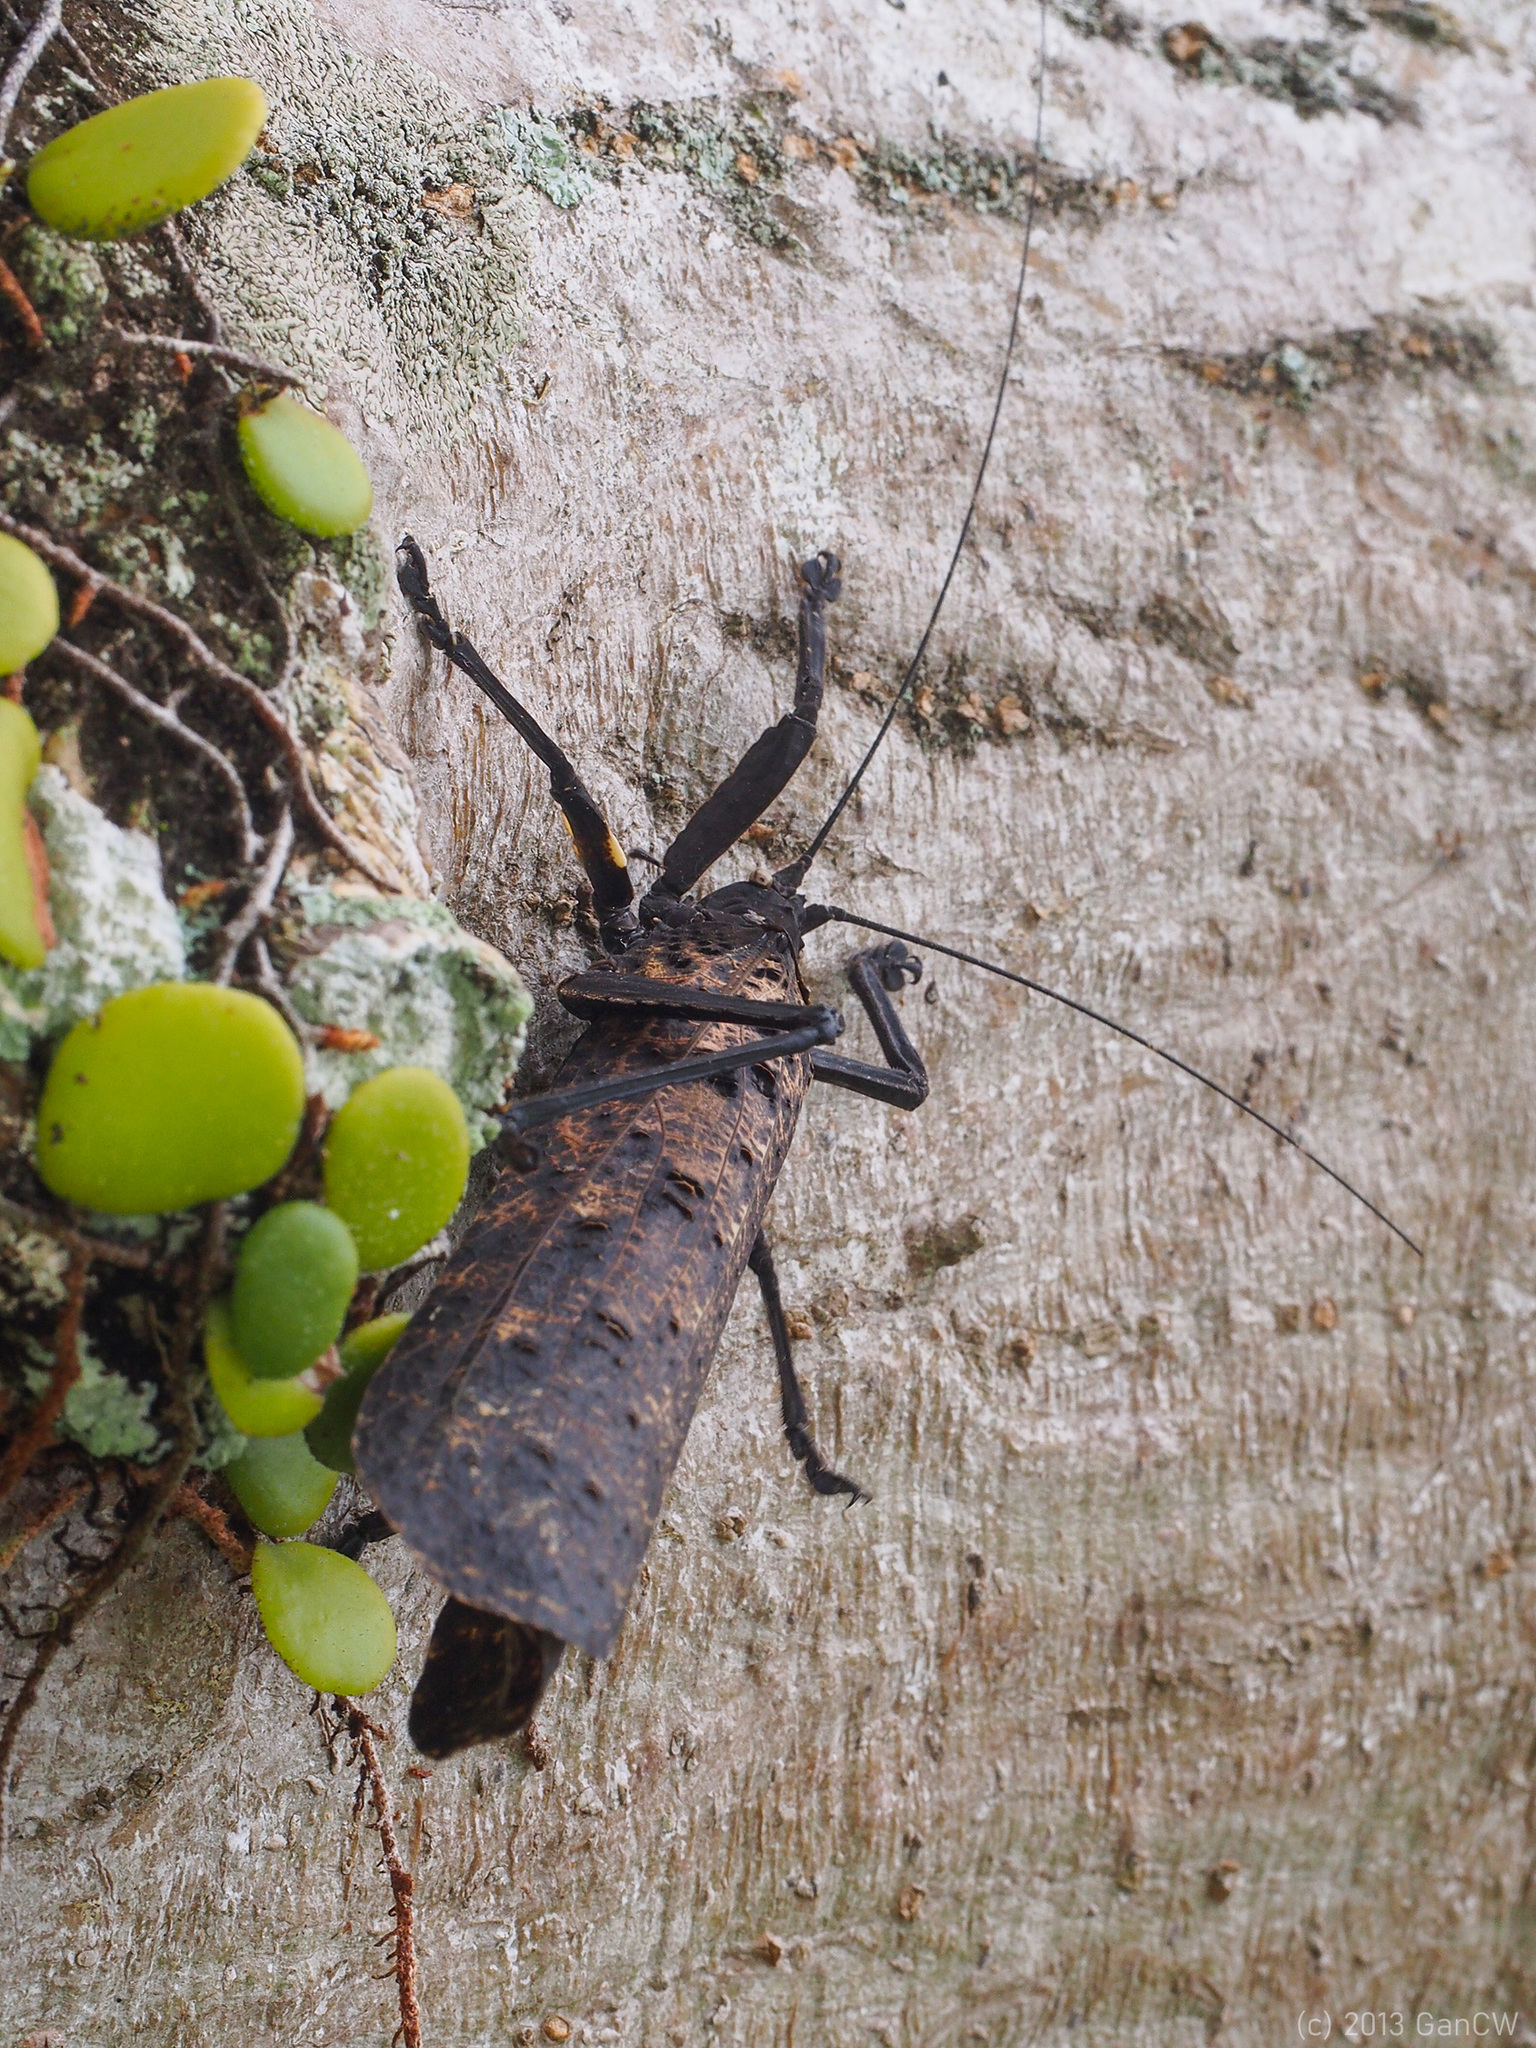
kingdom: Animalia
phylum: Arthropoda
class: Insecta
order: Orthoptera
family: Tettigoniidae
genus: Tegrolcinia
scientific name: Tegrolcinia karnyi
